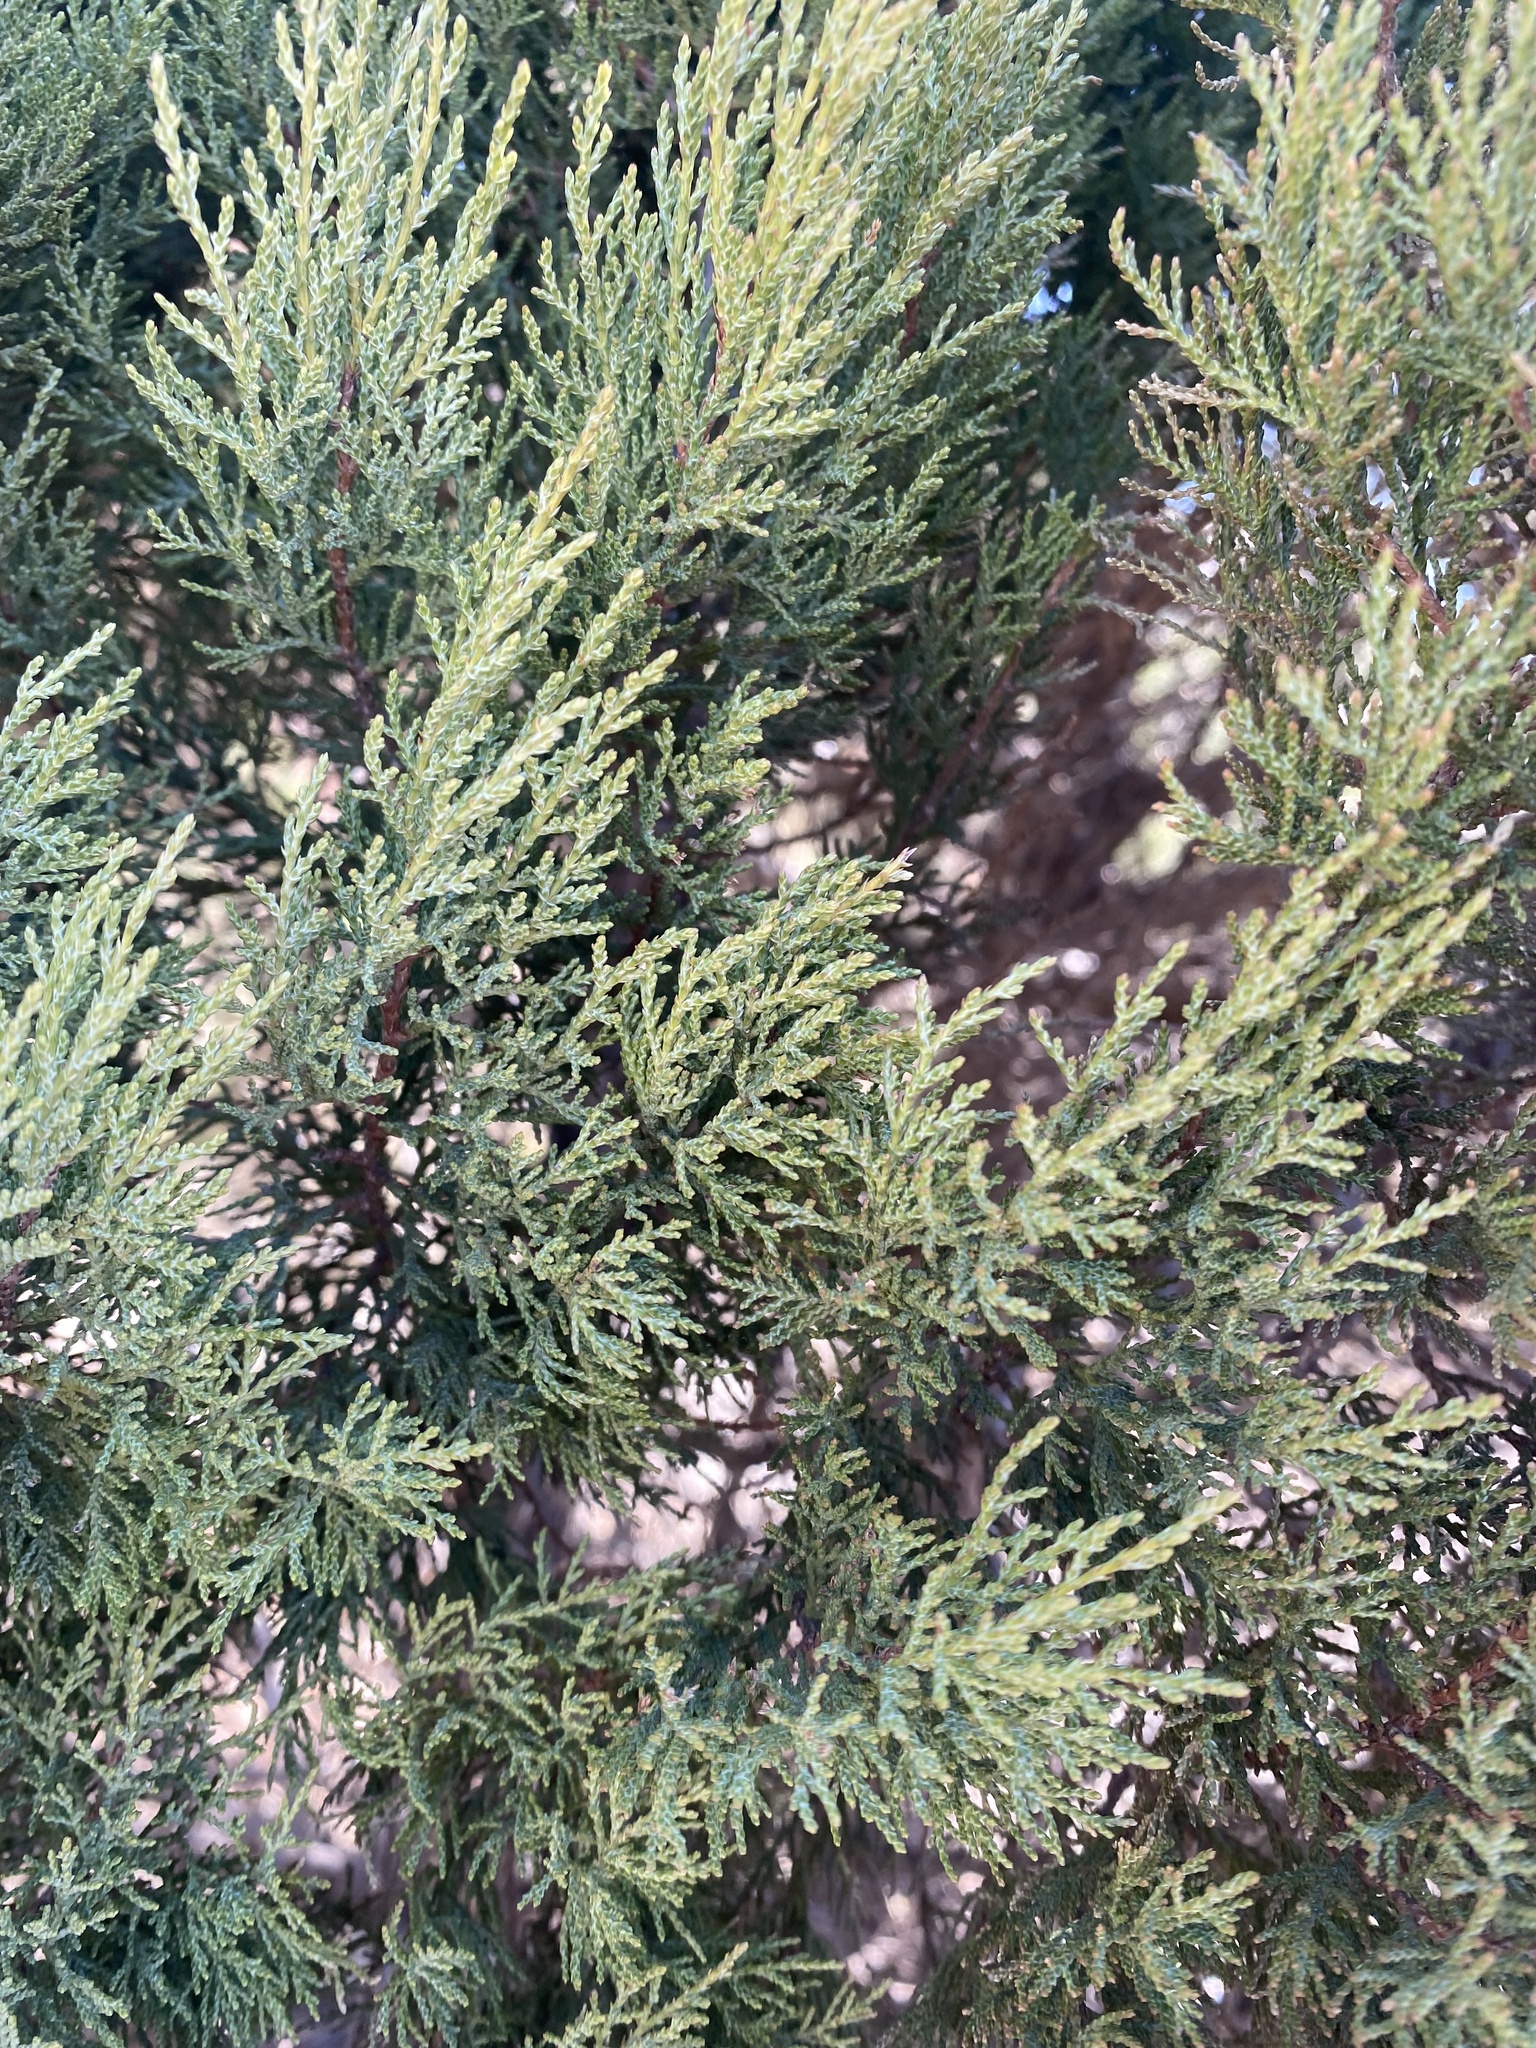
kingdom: Plantae
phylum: Tracheophyta
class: Pinopsida
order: Pinales
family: Cupressaceae
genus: Juniperus
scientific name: Juniperus excelsa
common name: Crimean juniper
